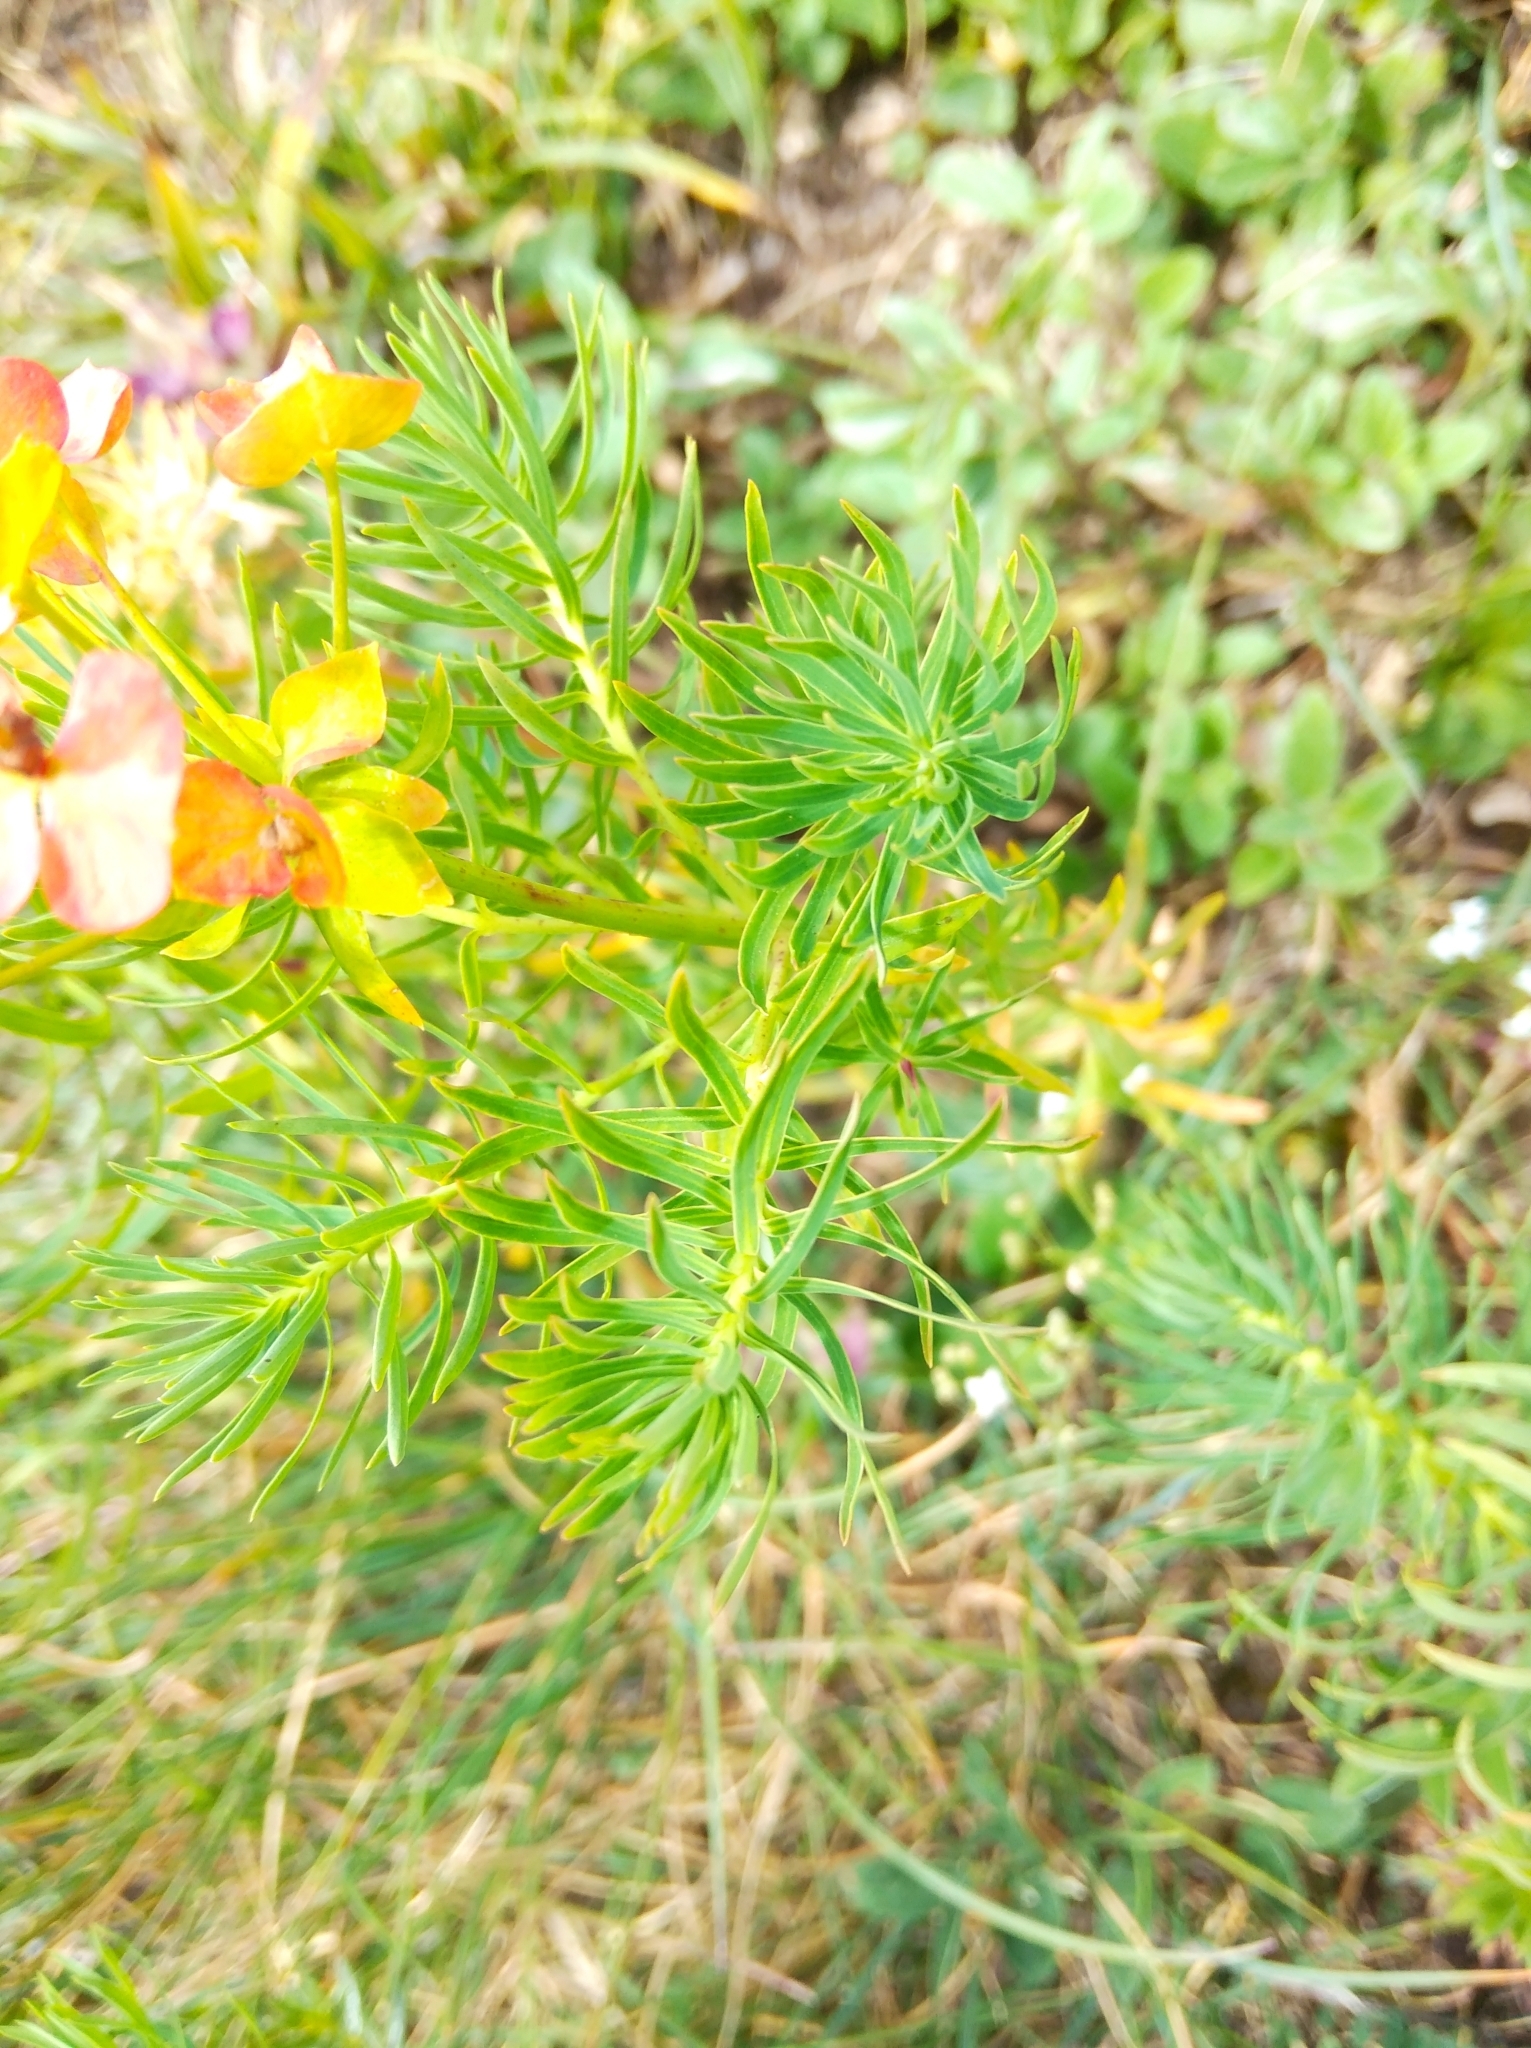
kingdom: Plantae
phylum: Tracheophyta
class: Magnoliopsida
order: Malpighiales
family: Euphorbiaceae
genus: Euphorbia
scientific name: Euphorbia cyparissias
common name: Cypress spurge
